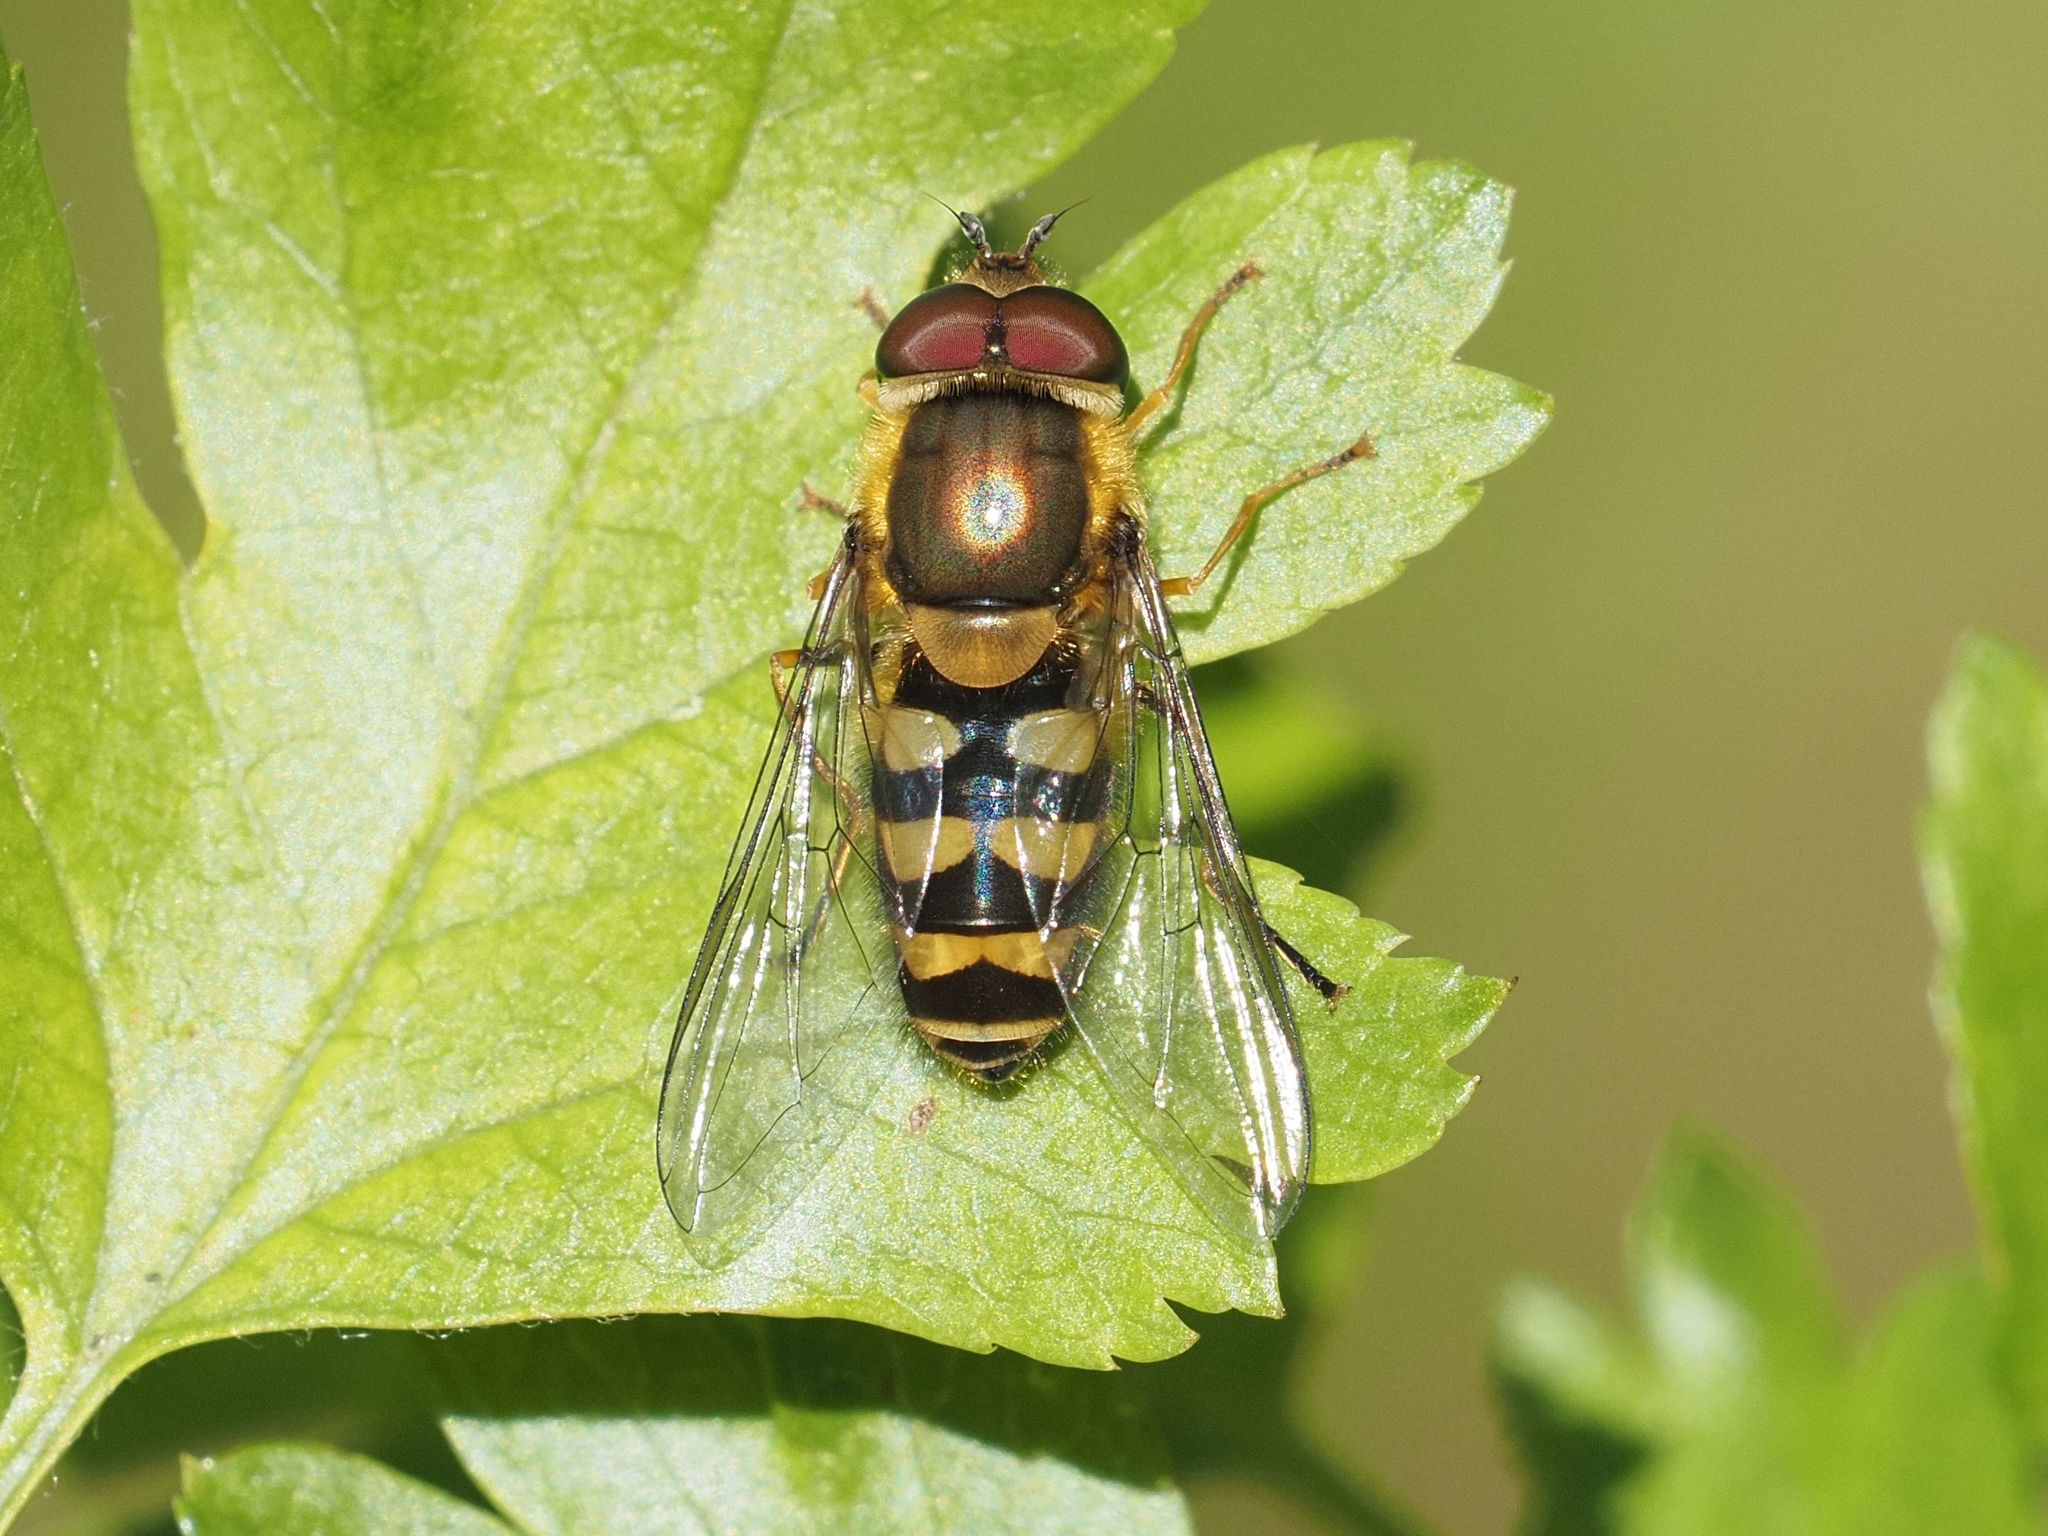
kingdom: Animalia
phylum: Arthropoda
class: Insecta
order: Diptera
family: Syrphidae
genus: Syrphus
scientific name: Syrphus
